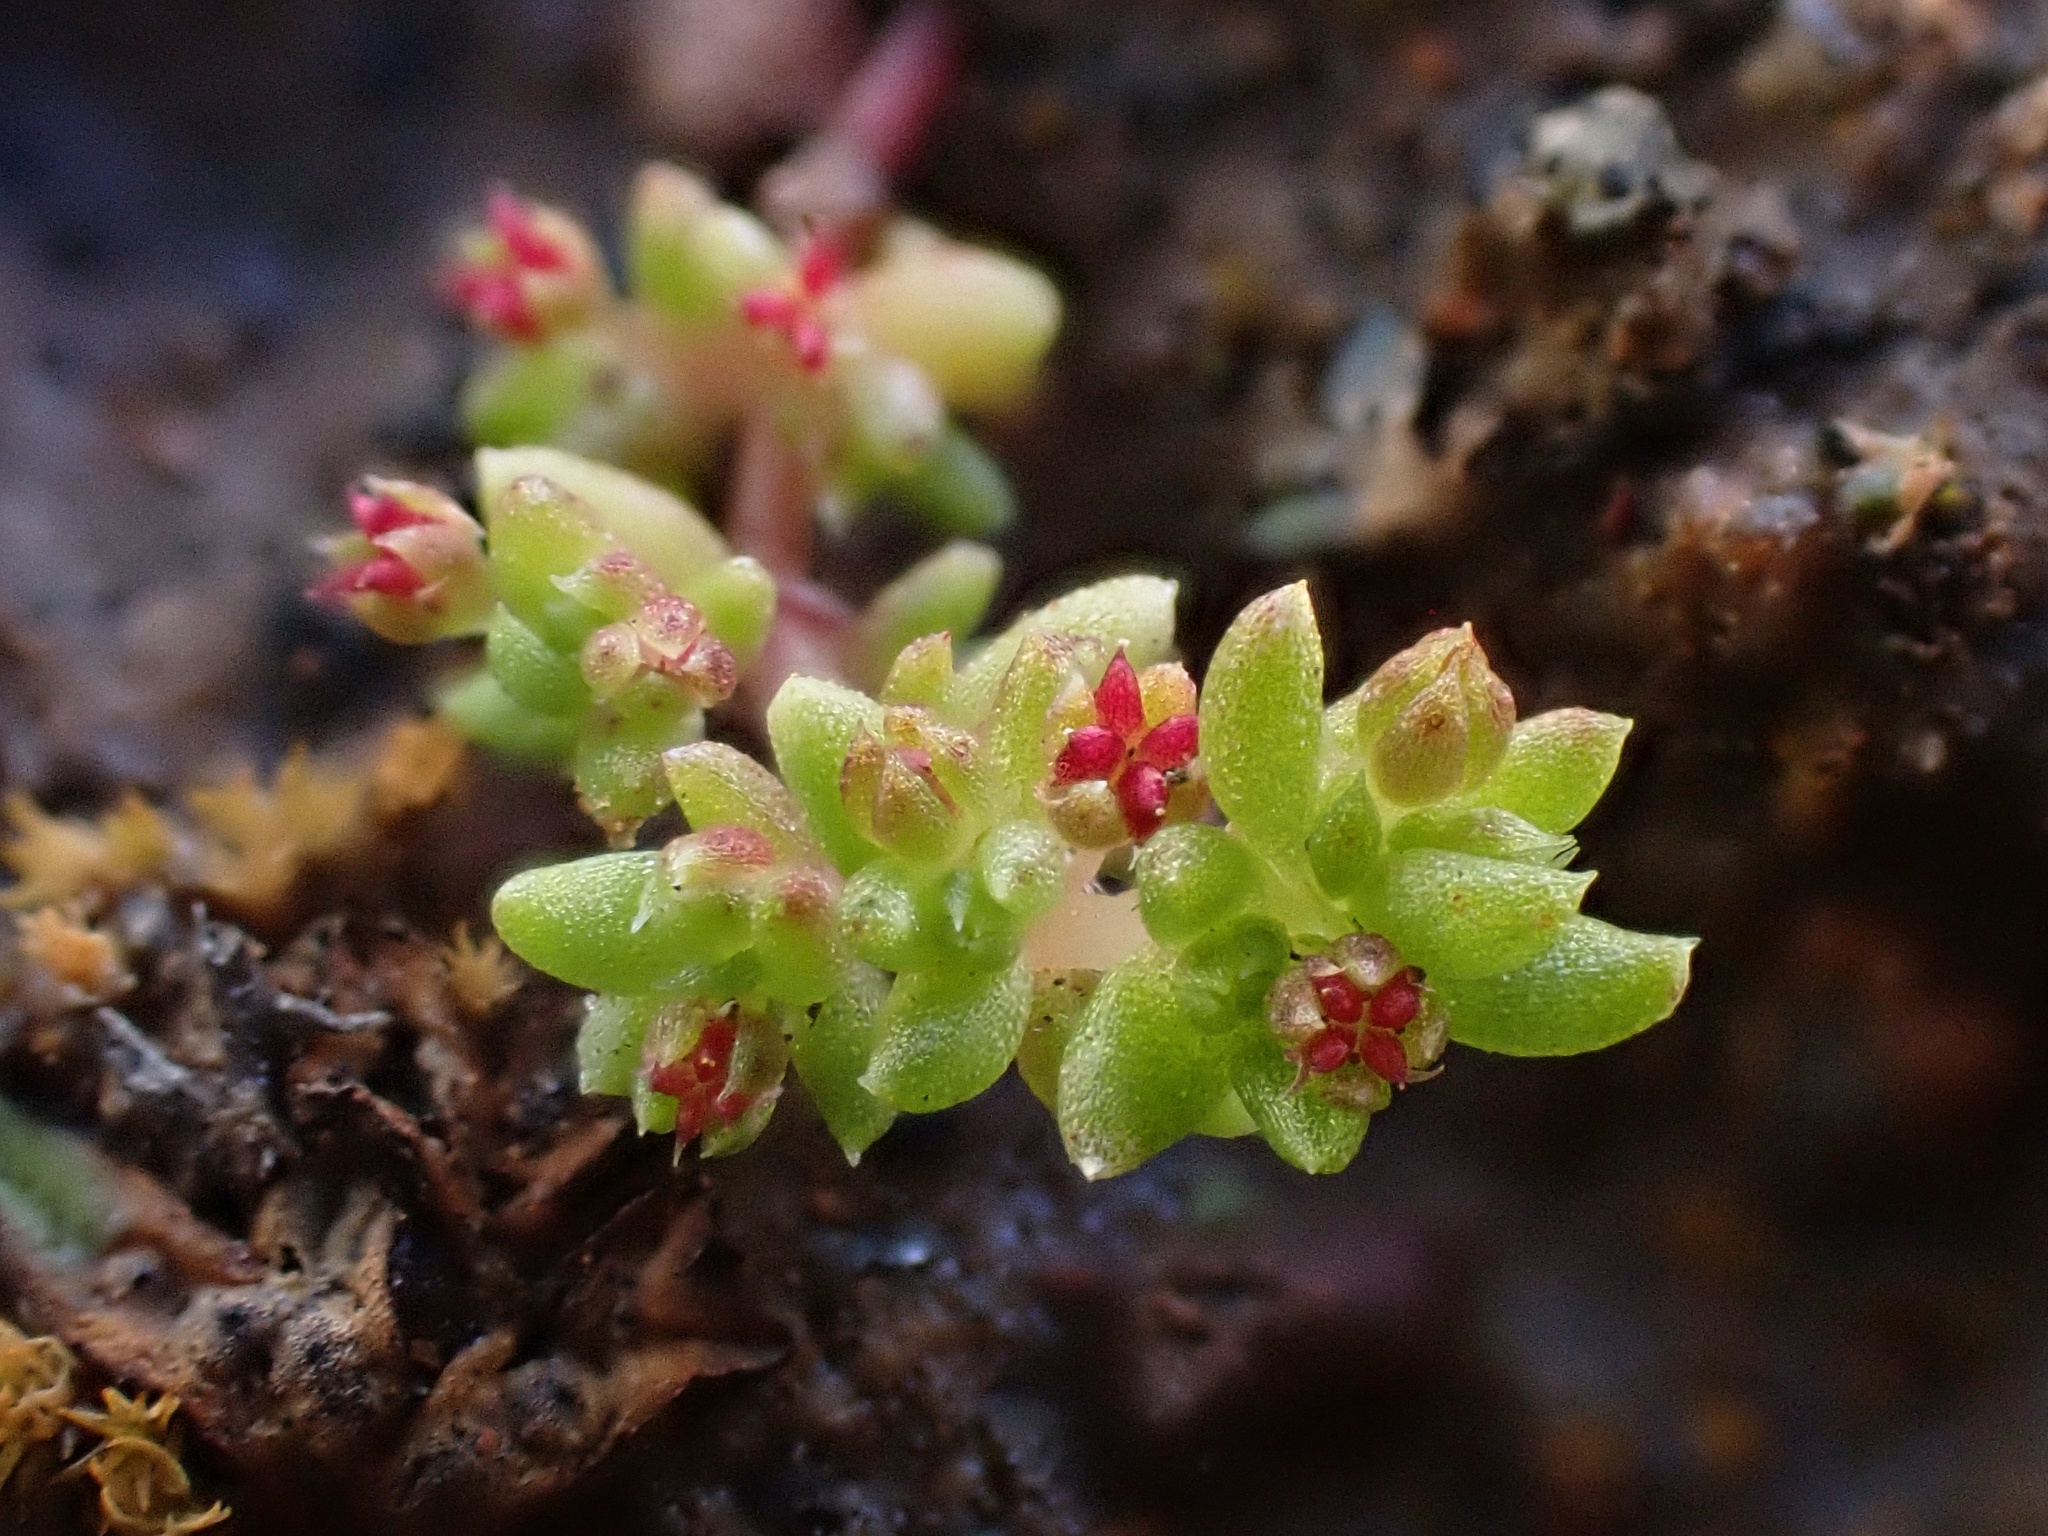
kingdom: Plantae
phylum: Tracheophyta
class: Magnoliopsida
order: Saxifragales
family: Crassulaceae
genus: Crassula
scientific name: Crassula connata
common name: Erect pygmyweed
